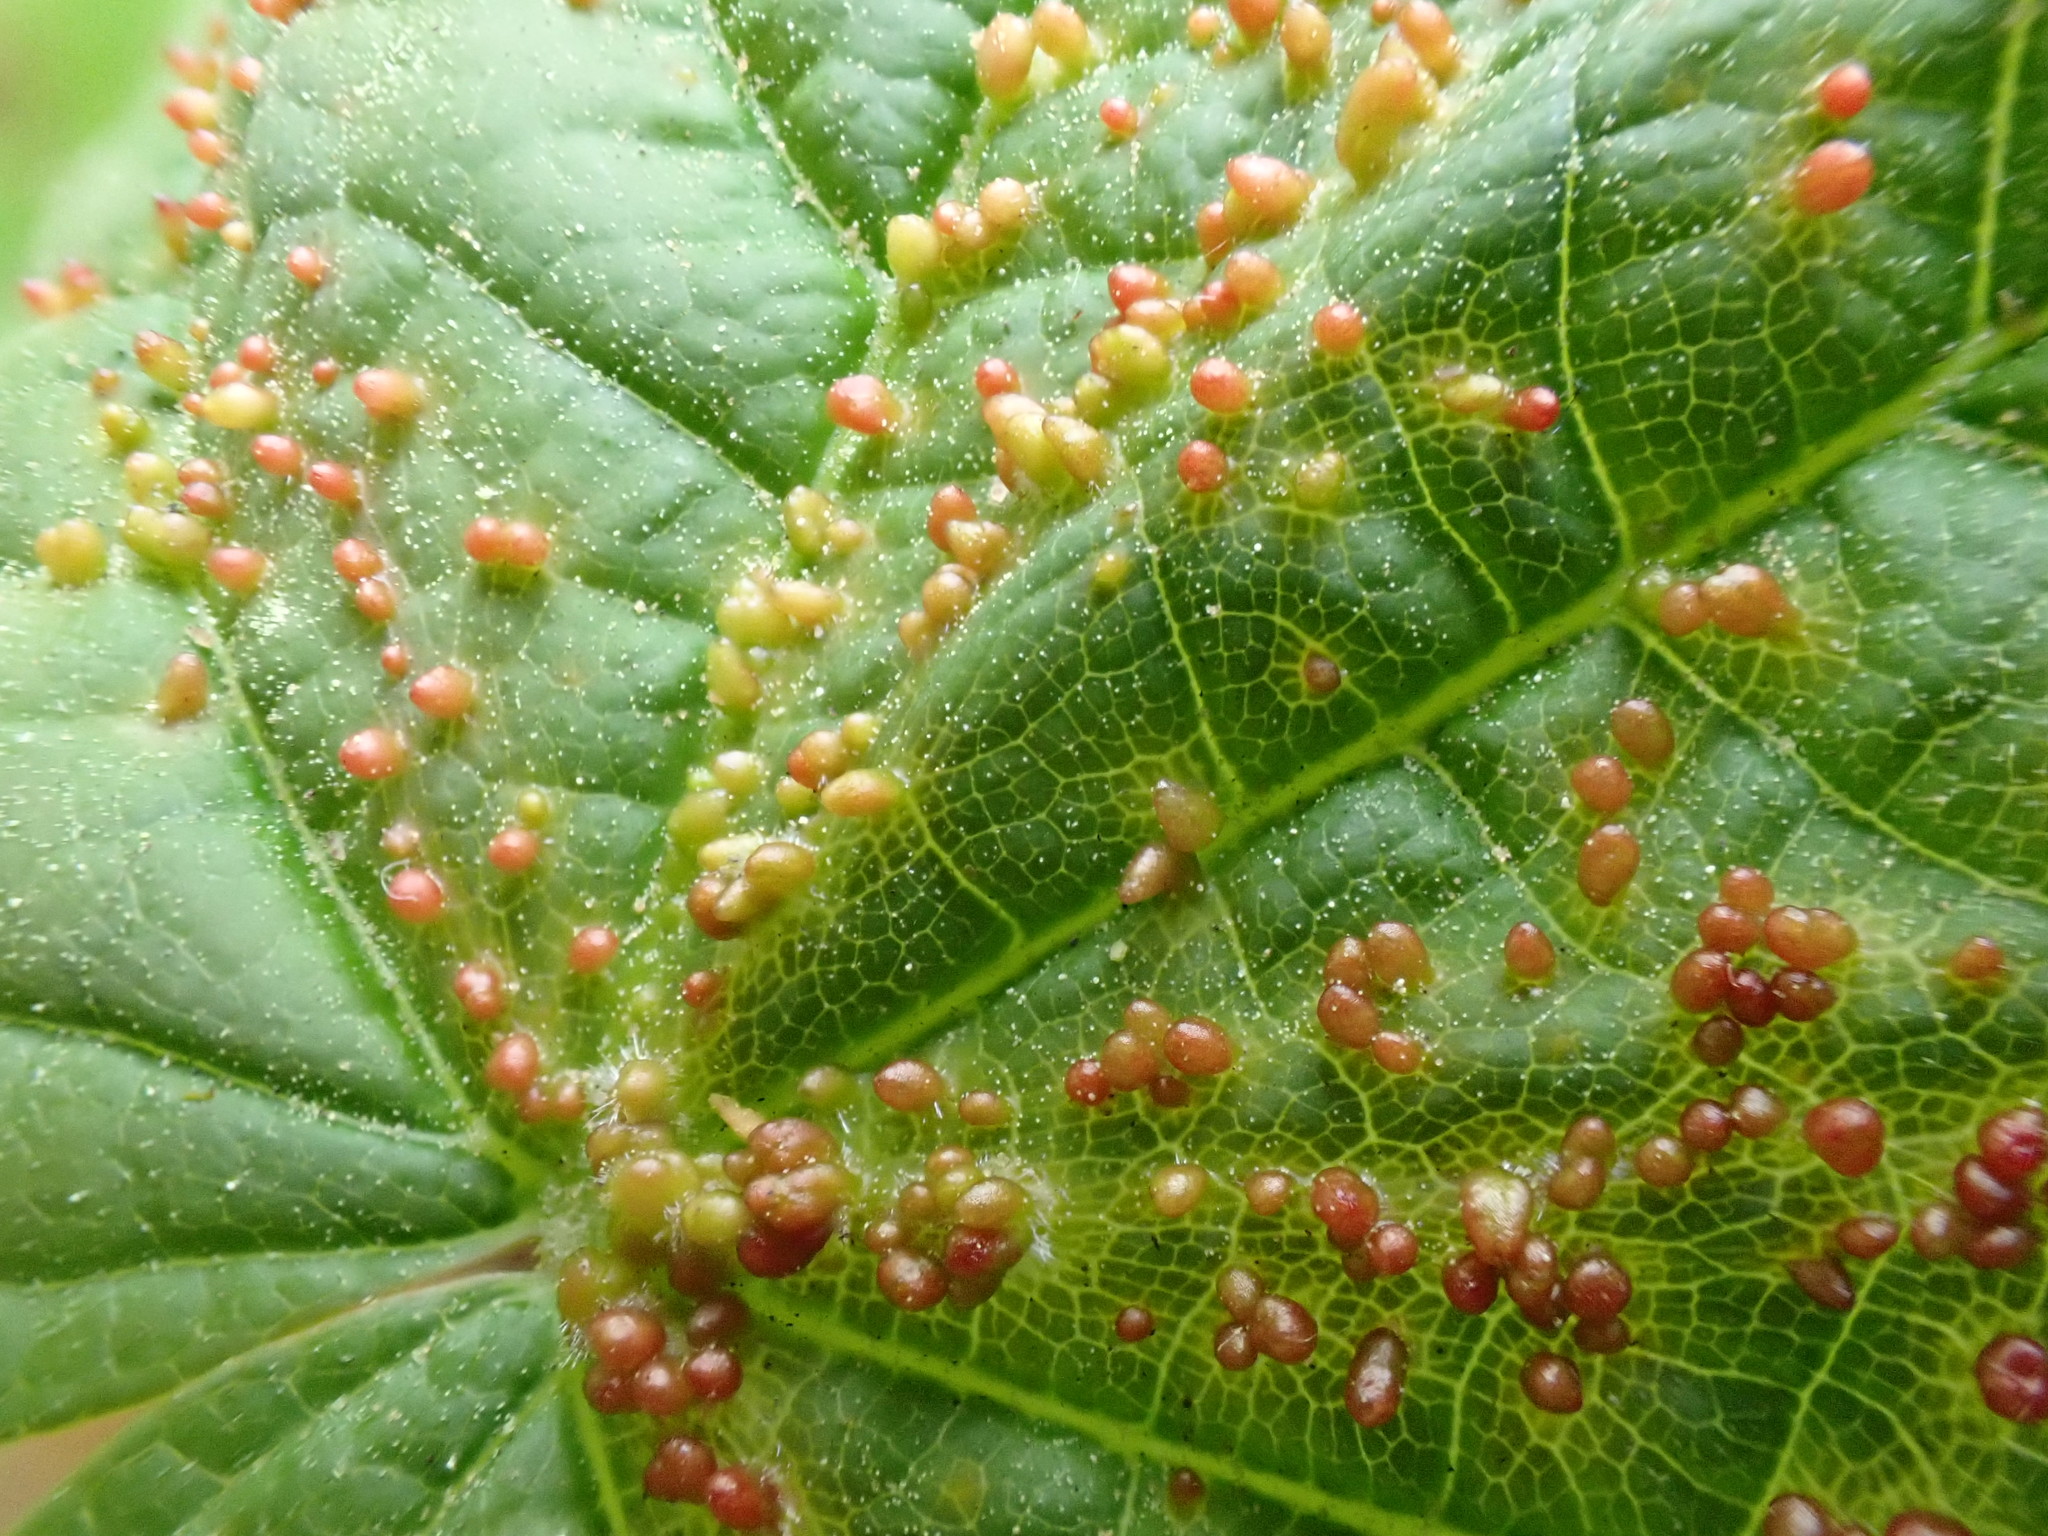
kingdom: Animalia
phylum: Arthropoda
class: Arachnida
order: Trombidiformes
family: Eriophyidae
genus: Aceria
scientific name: Aceria cephaloneus
